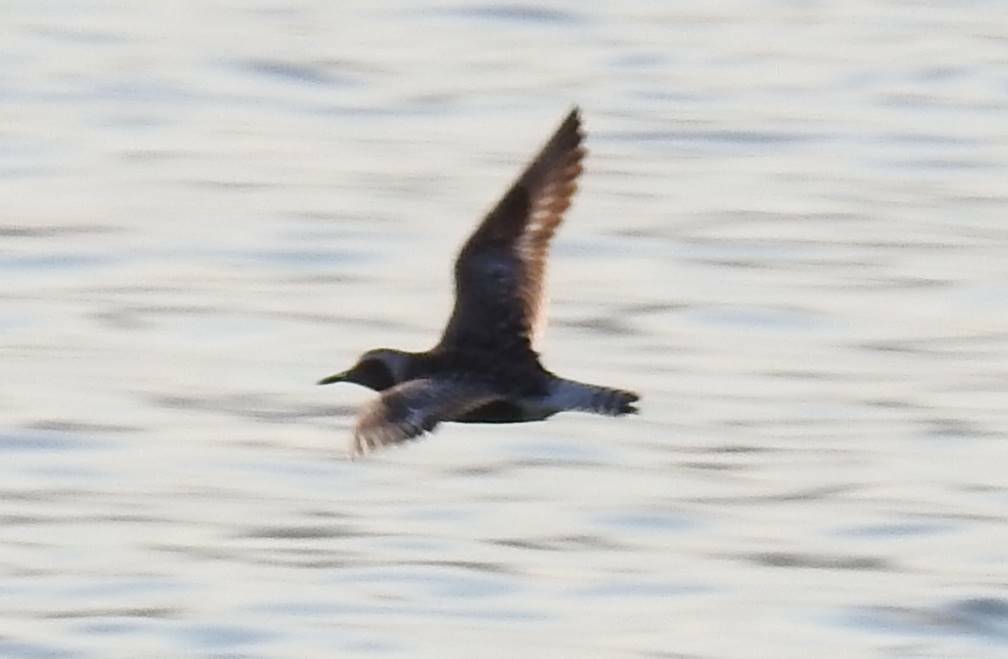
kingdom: Animalia
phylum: Chordata
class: Aves
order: Charadriiformes
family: Charadriidae
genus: Pluvialis
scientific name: Pluvialis squatarola
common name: Grey plover
